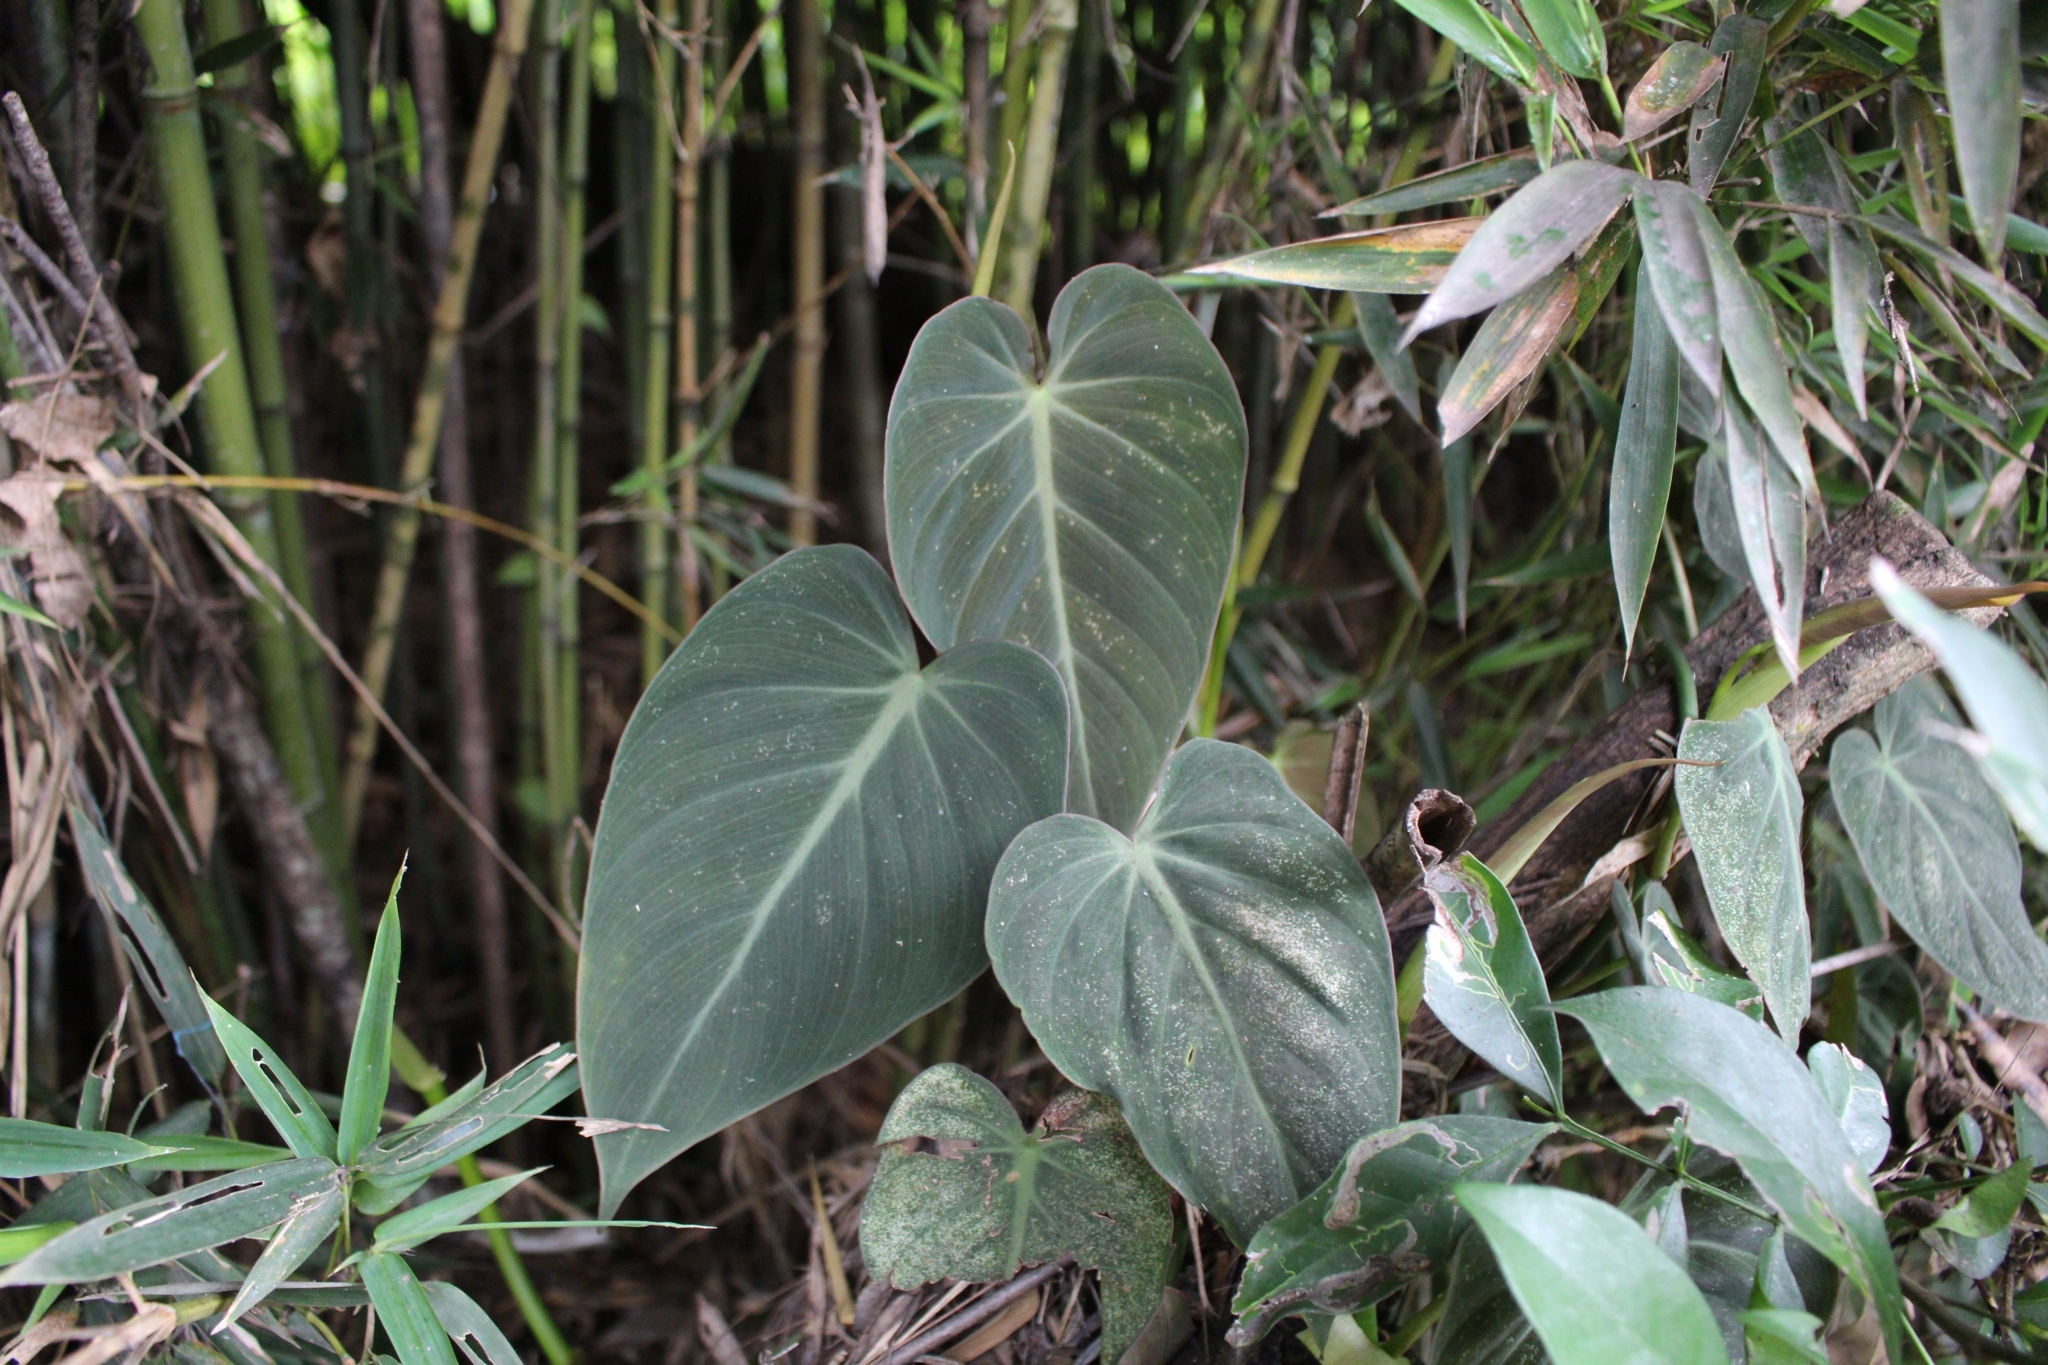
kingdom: Plantae
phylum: Tracheophyta
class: Liliopsida
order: Alismatales
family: Araceae
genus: Philodendron
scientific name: Philodendron hederaceum
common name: Vilevine
